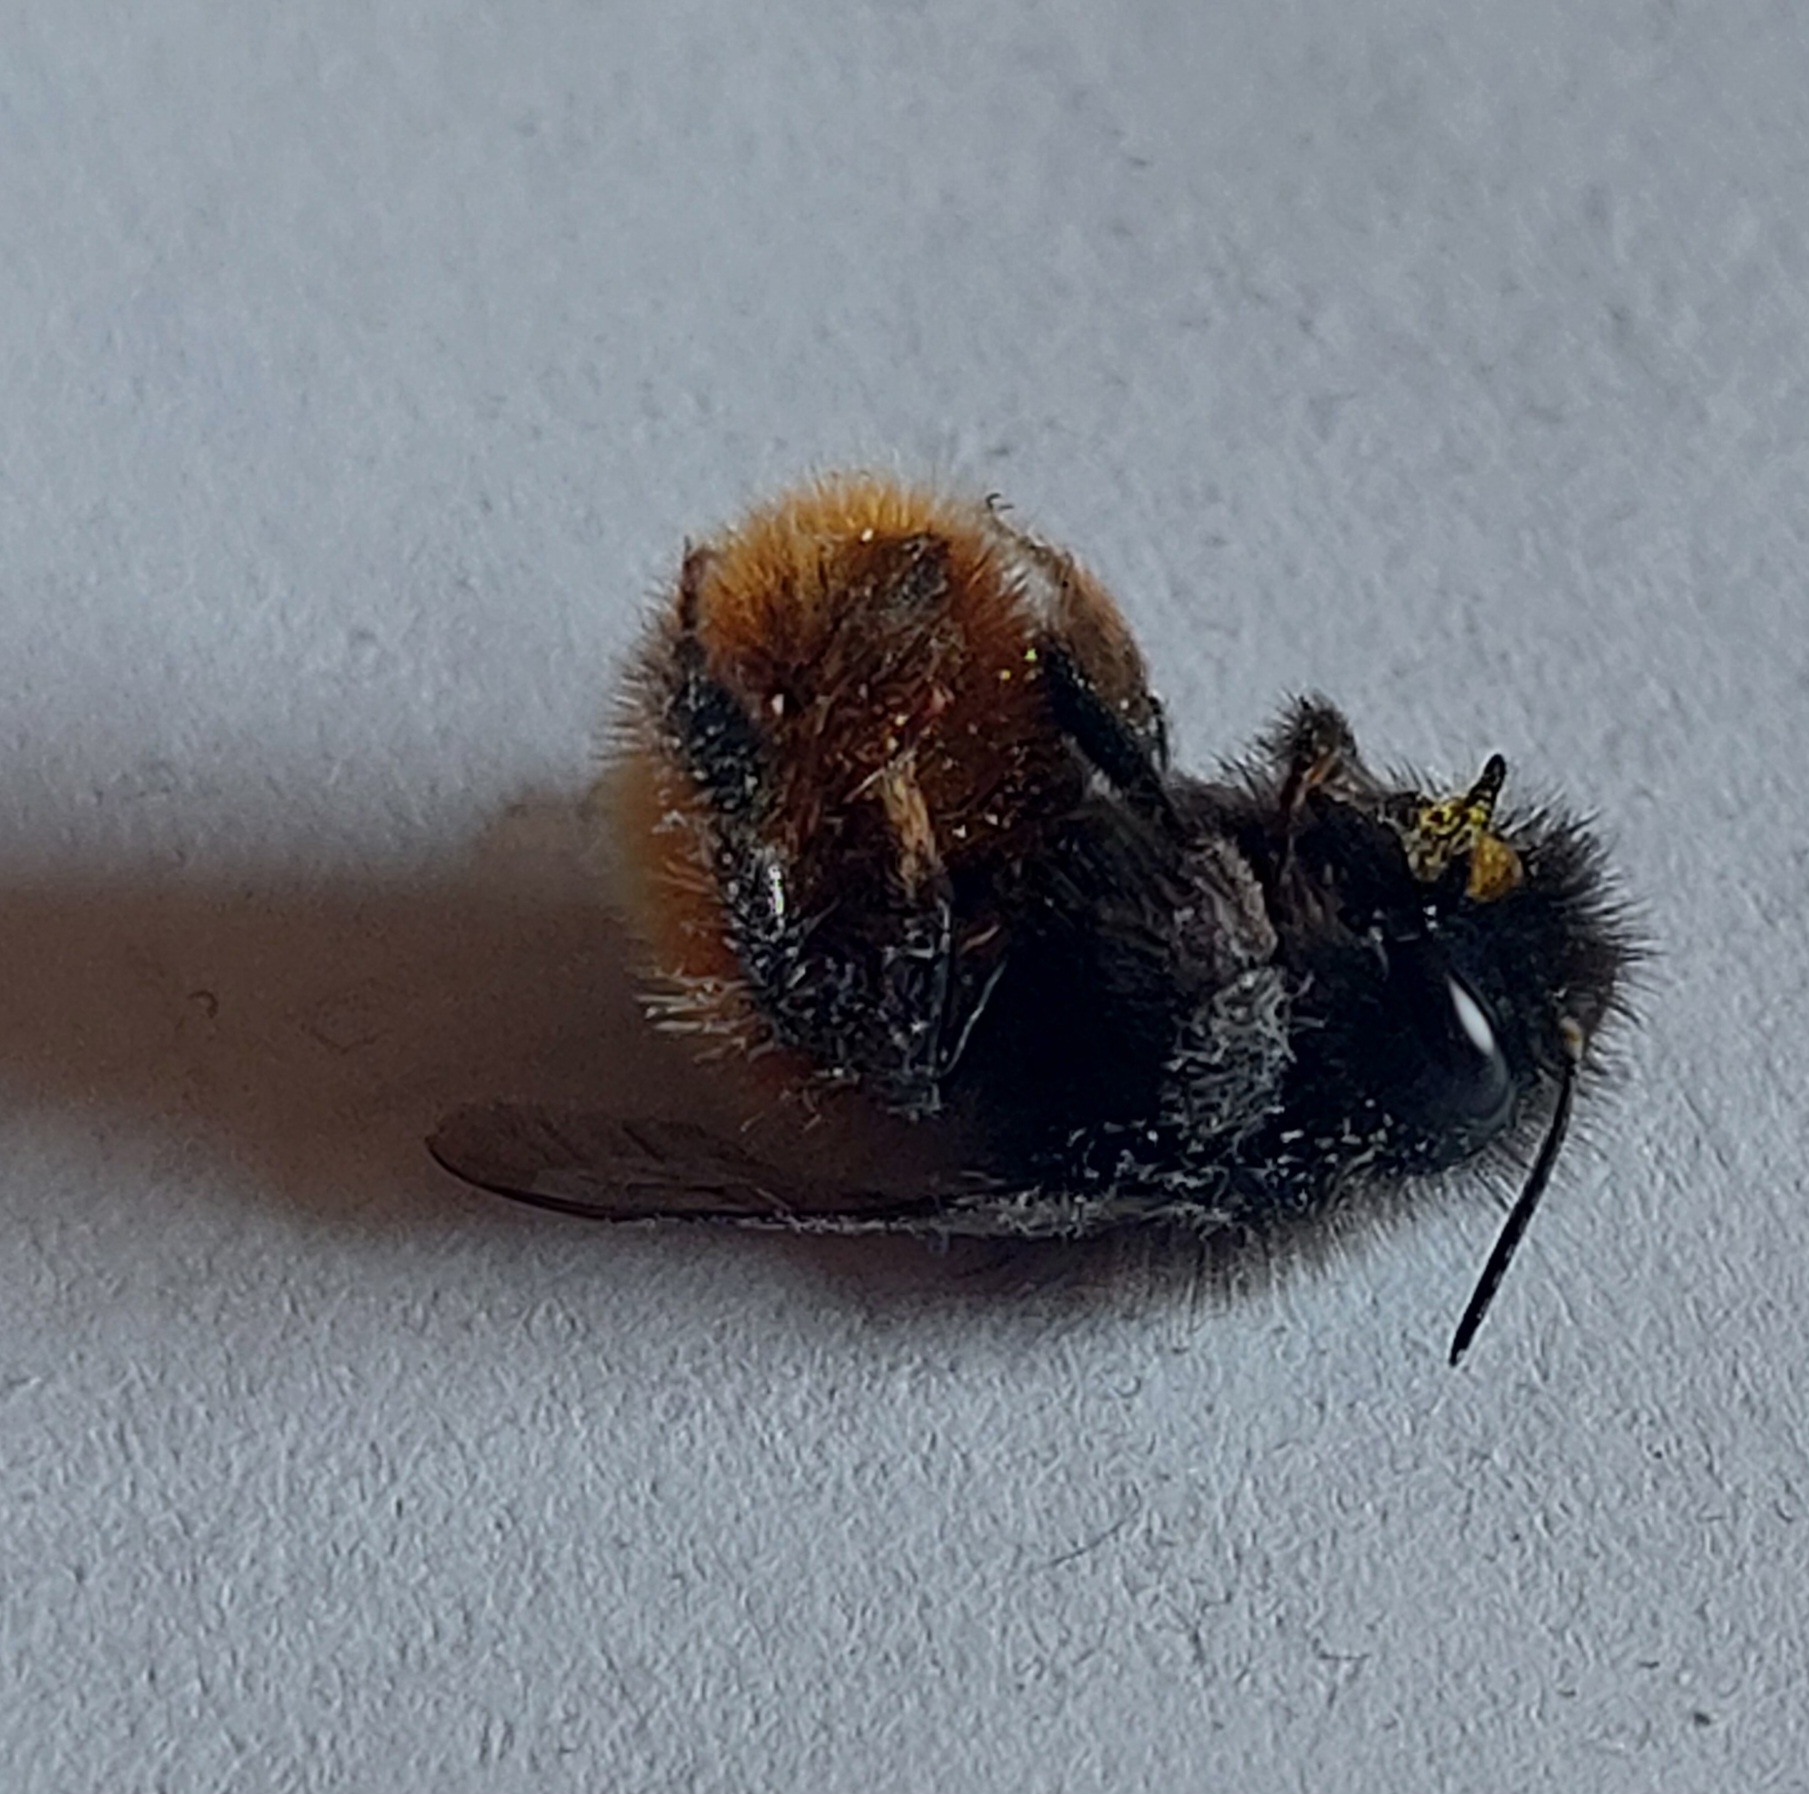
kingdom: Animalia
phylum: Arthropoda
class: Insecta
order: Hymenoptera
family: Megachilidae
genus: Osmia
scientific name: Osmia cornuta
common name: Mason bee
